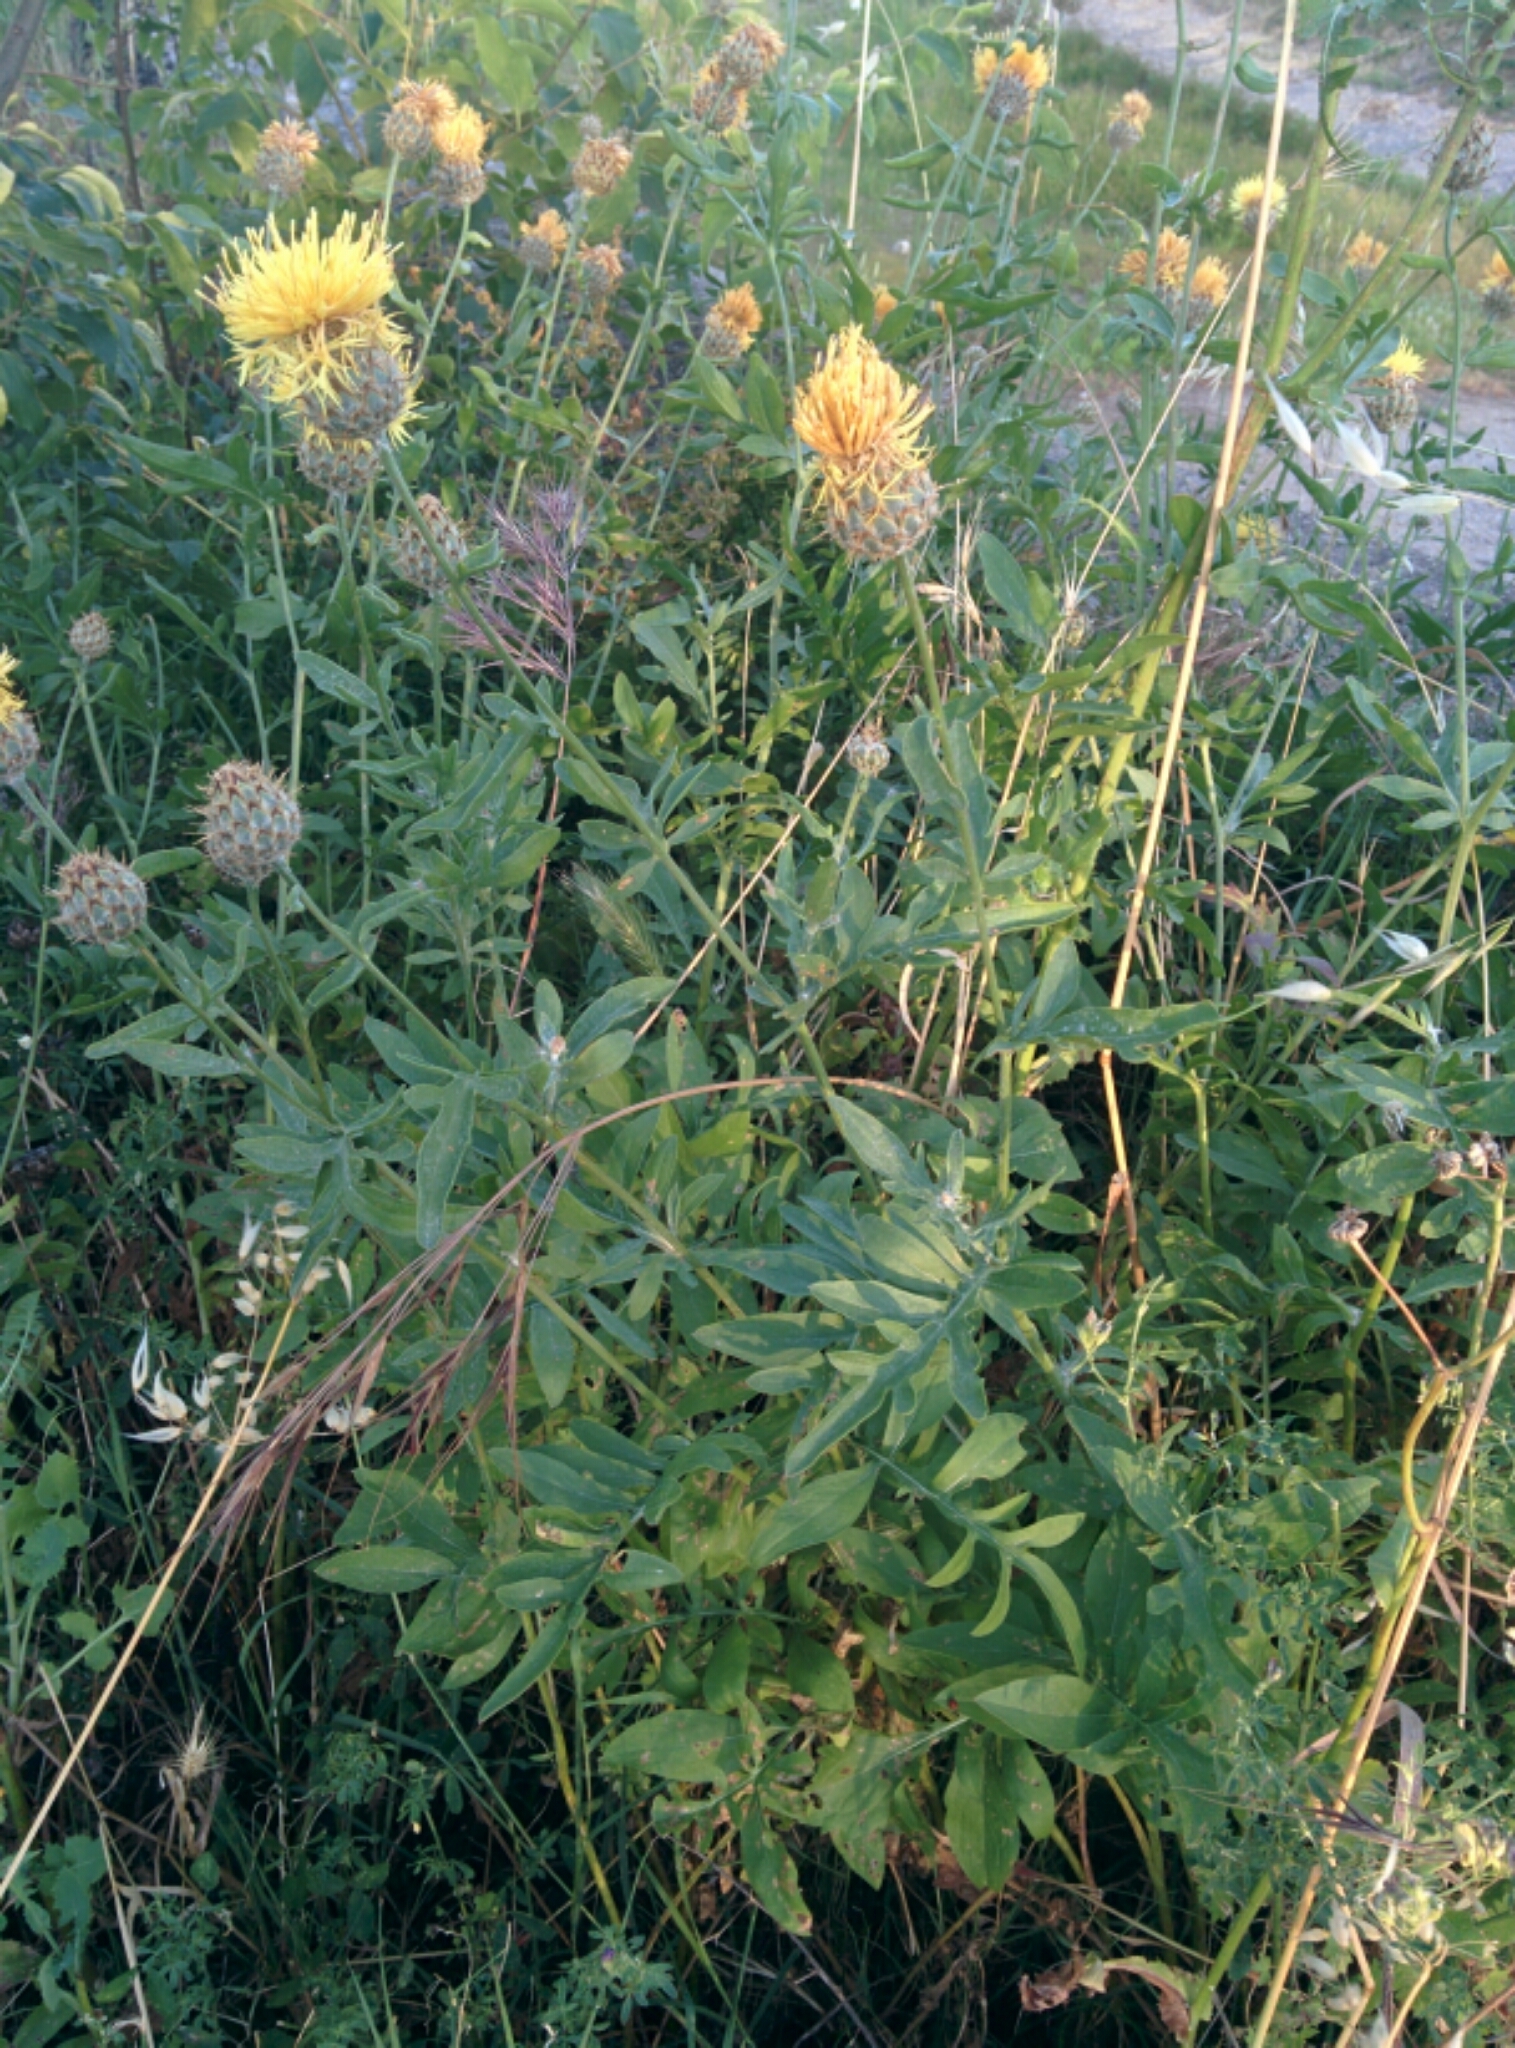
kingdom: Plantae
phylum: Tracheophyta
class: Magnoliopsida
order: Asterales
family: Asteraceae
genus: Centaurea
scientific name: Centaurea collina
